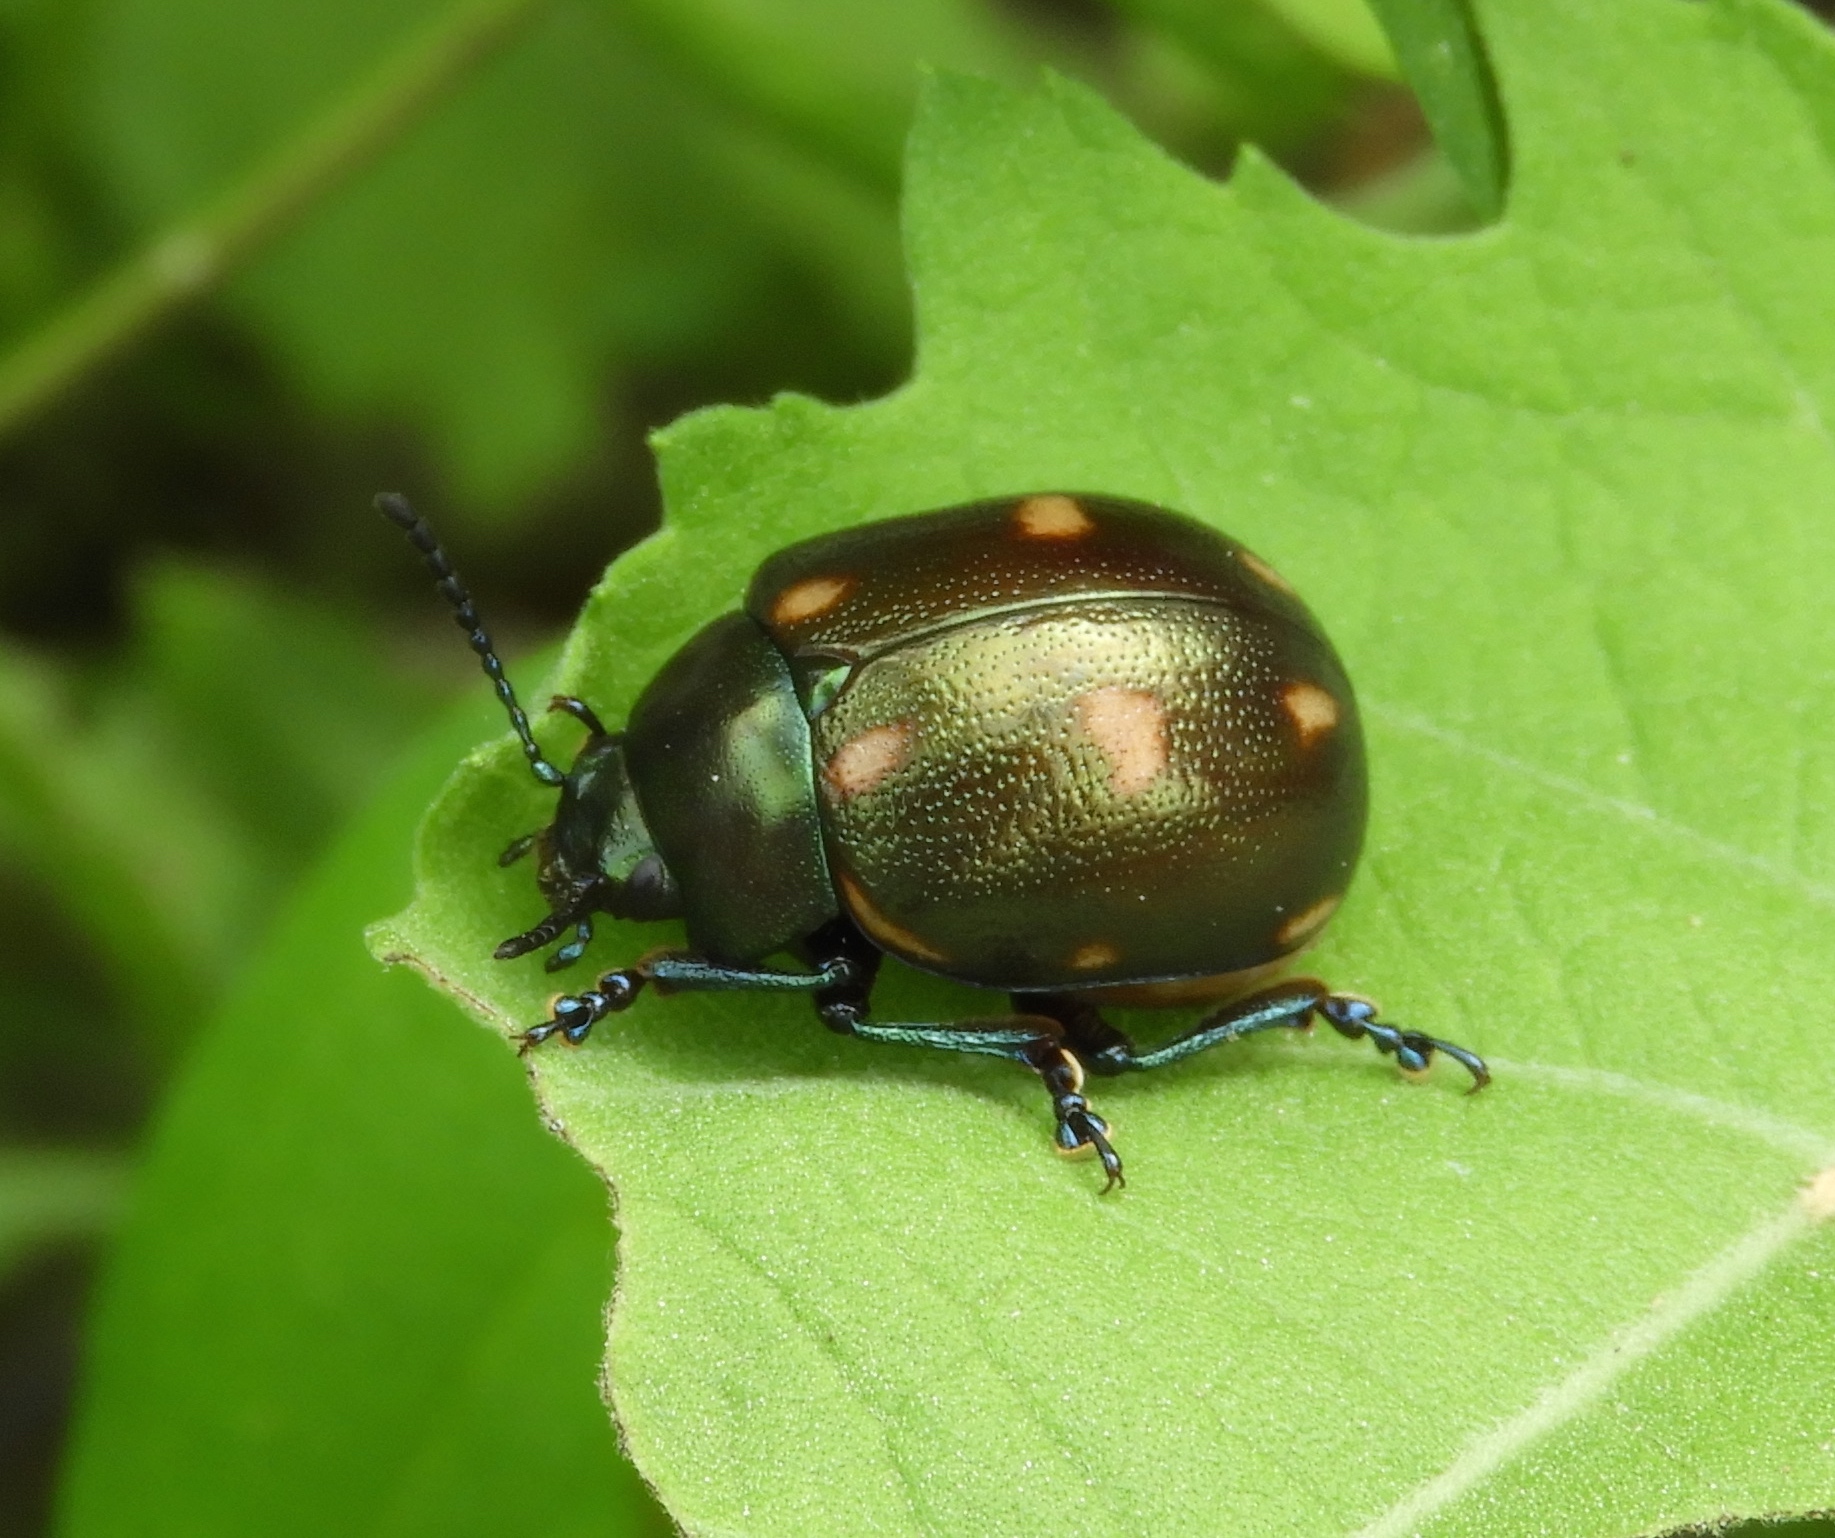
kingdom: Animalia
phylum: Arthropoda
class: Insecta
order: Coleoptera
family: Chrysomelidae
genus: Leptinotarsa
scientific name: Leptinotarsa behrensi
